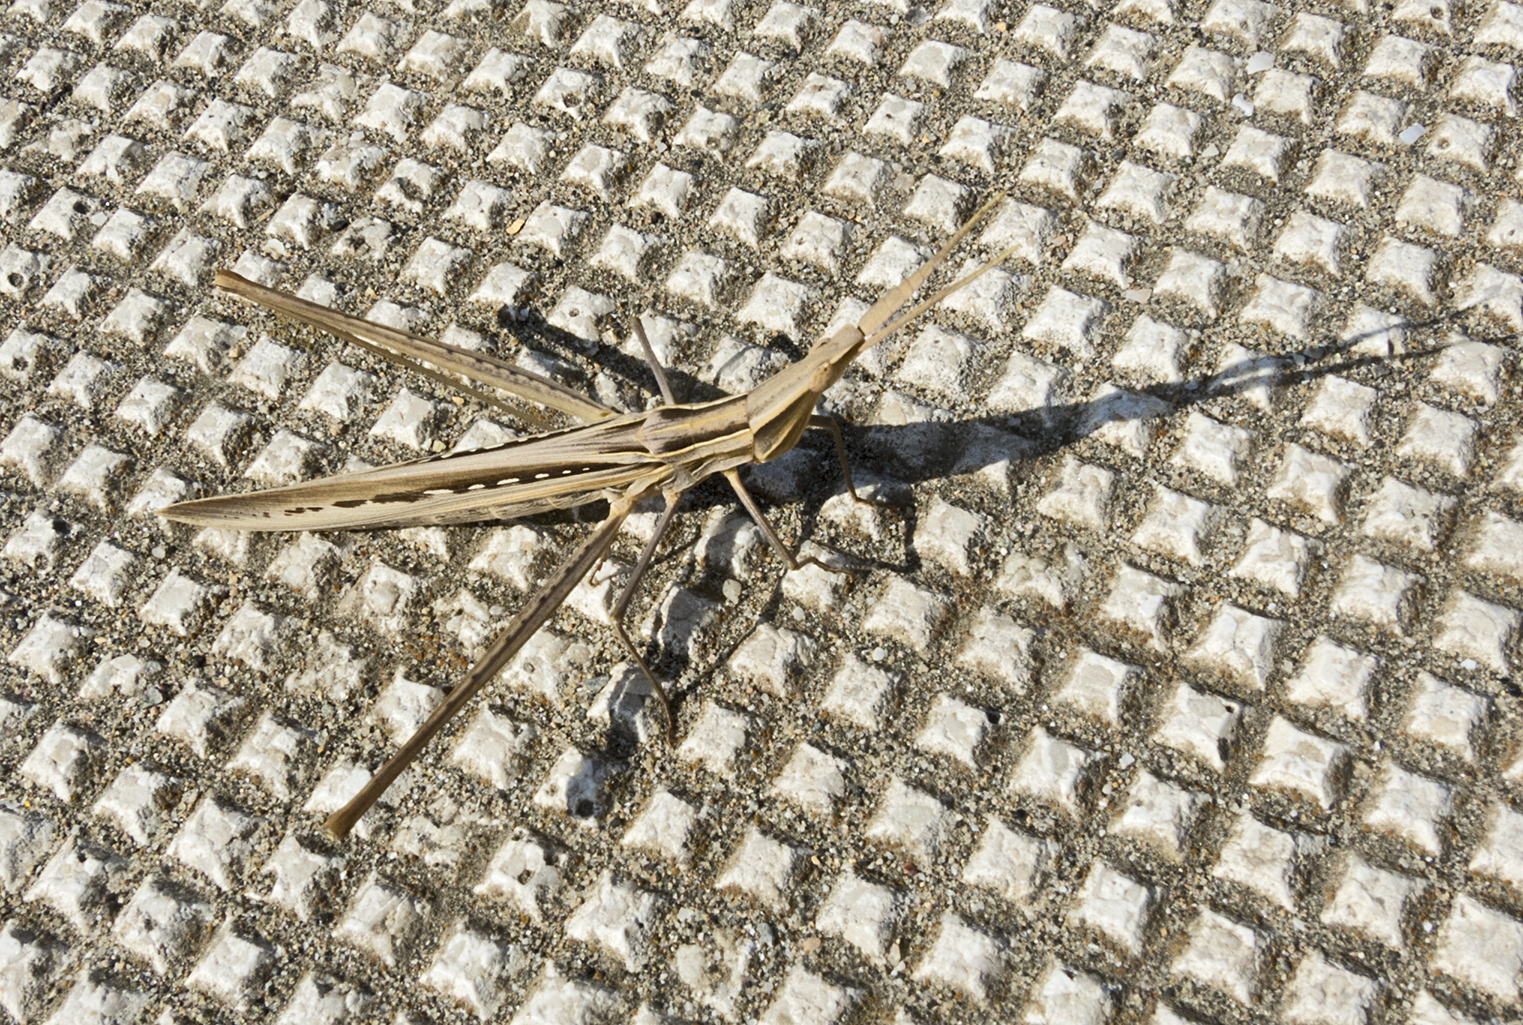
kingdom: Animalia
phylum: Arthropoda
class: Insecta
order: Orthoptera
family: Acrididae
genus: Acrida
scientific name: Acrida ungarica
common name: Common cone-headed grasshopper
